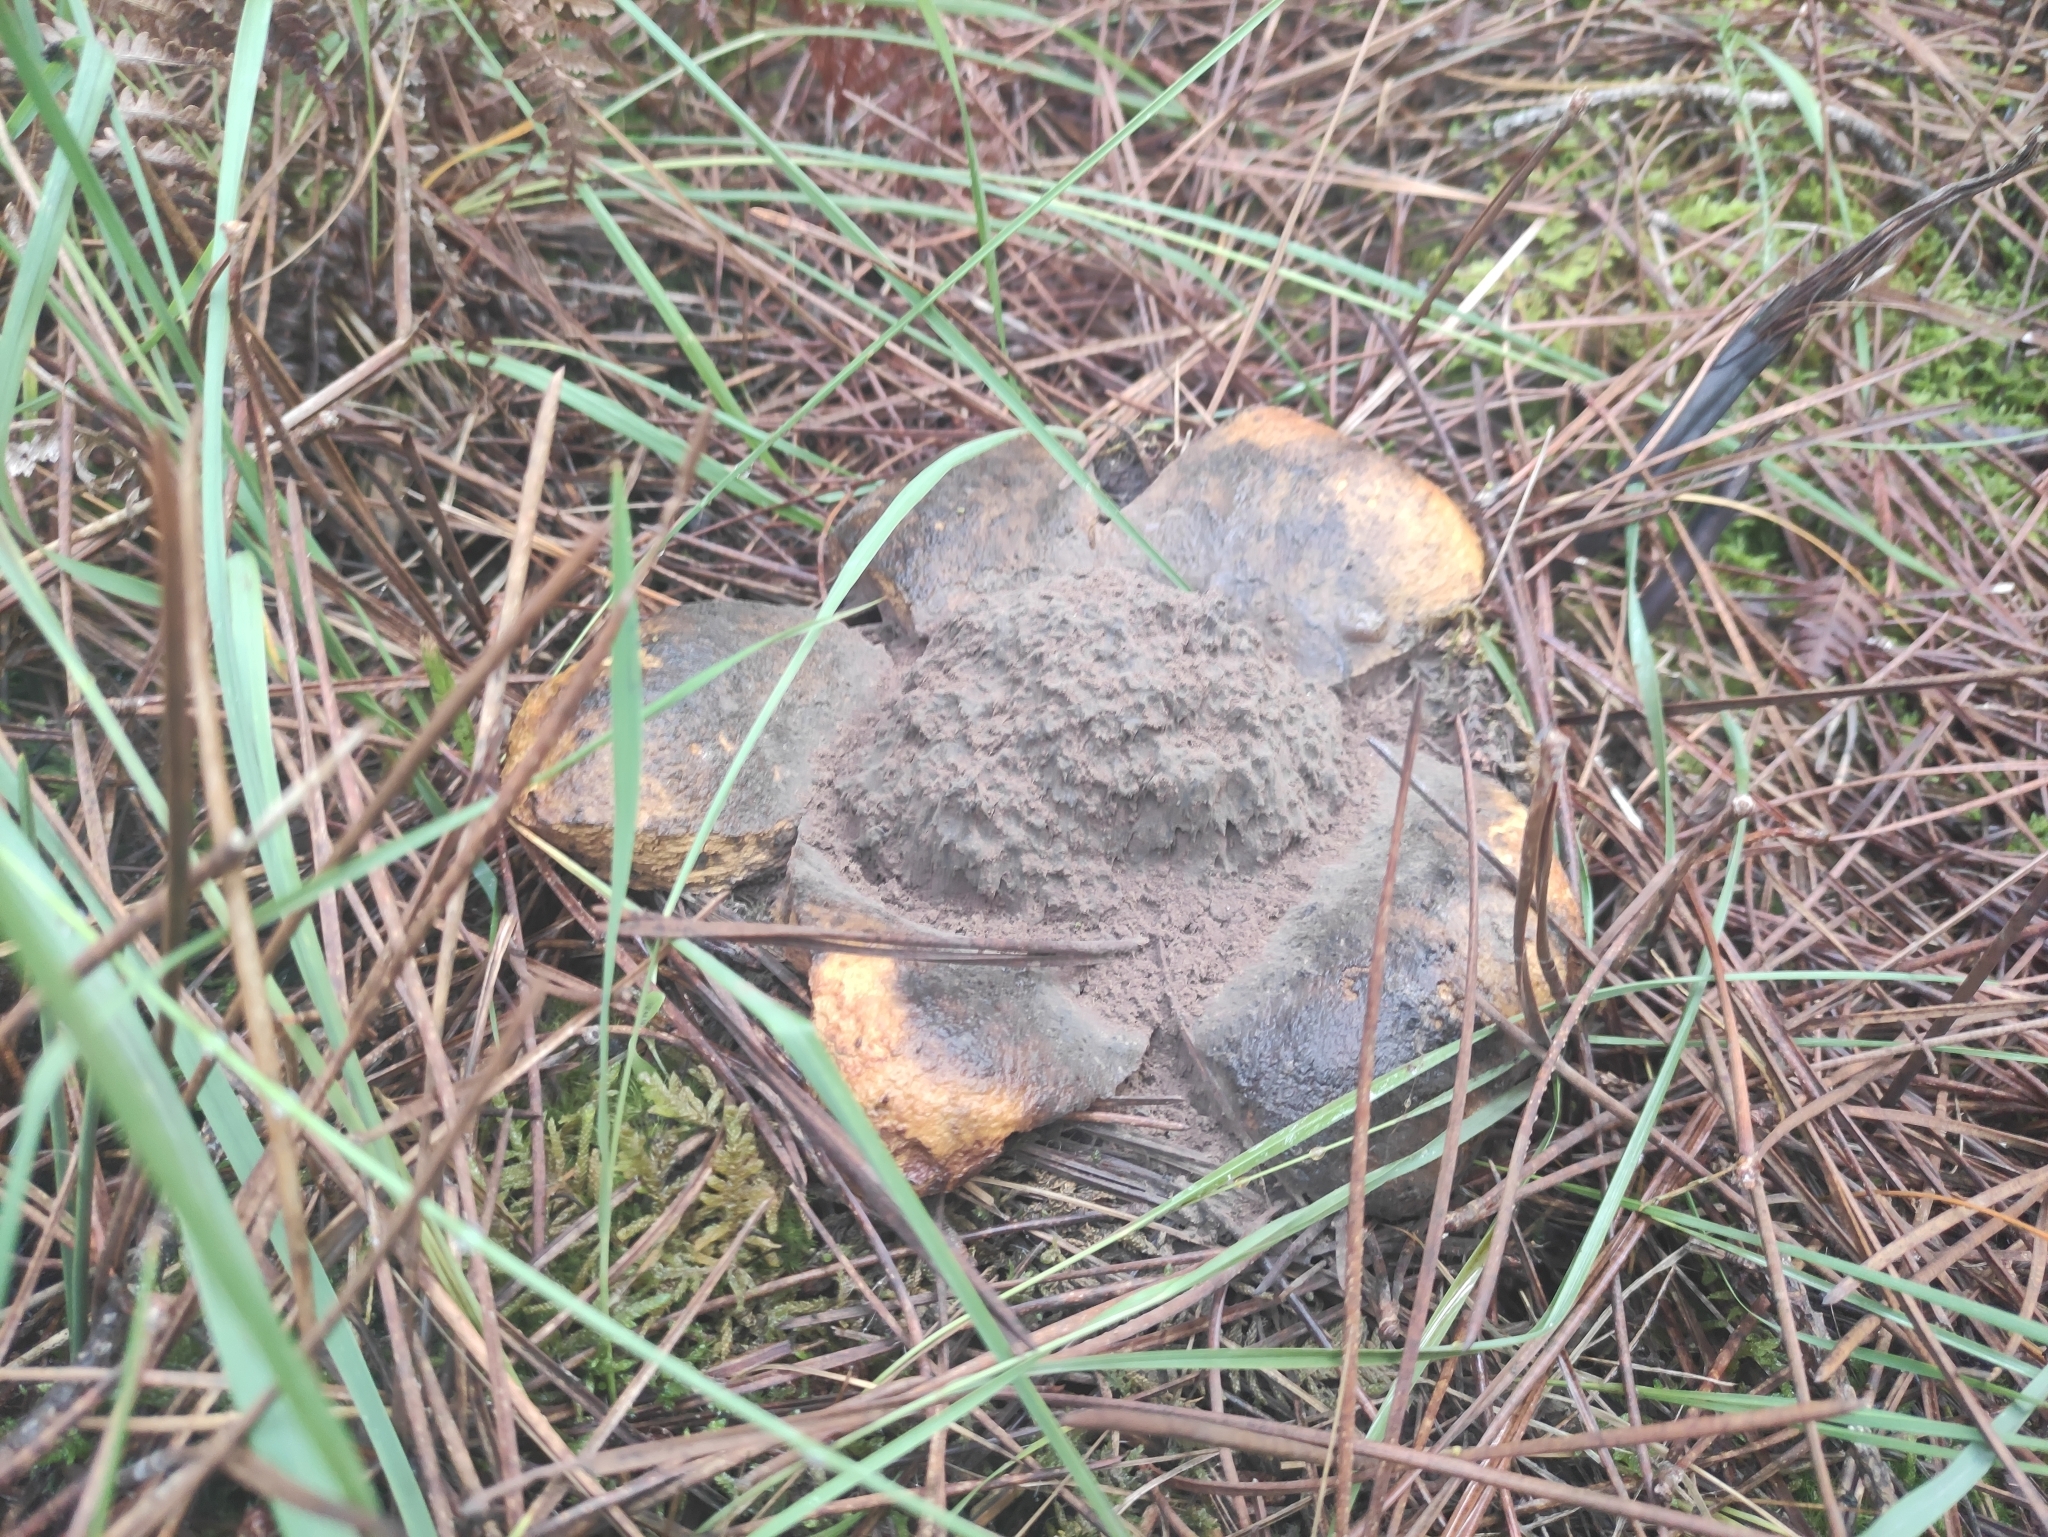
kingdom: Fungi
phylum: Basidiomycota
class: Agaricomycetes
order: Boletales
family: Sclerodermataceae
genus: Scleroderma
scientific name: Scleroderma polyrhizum
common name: Many-rooted earthball
